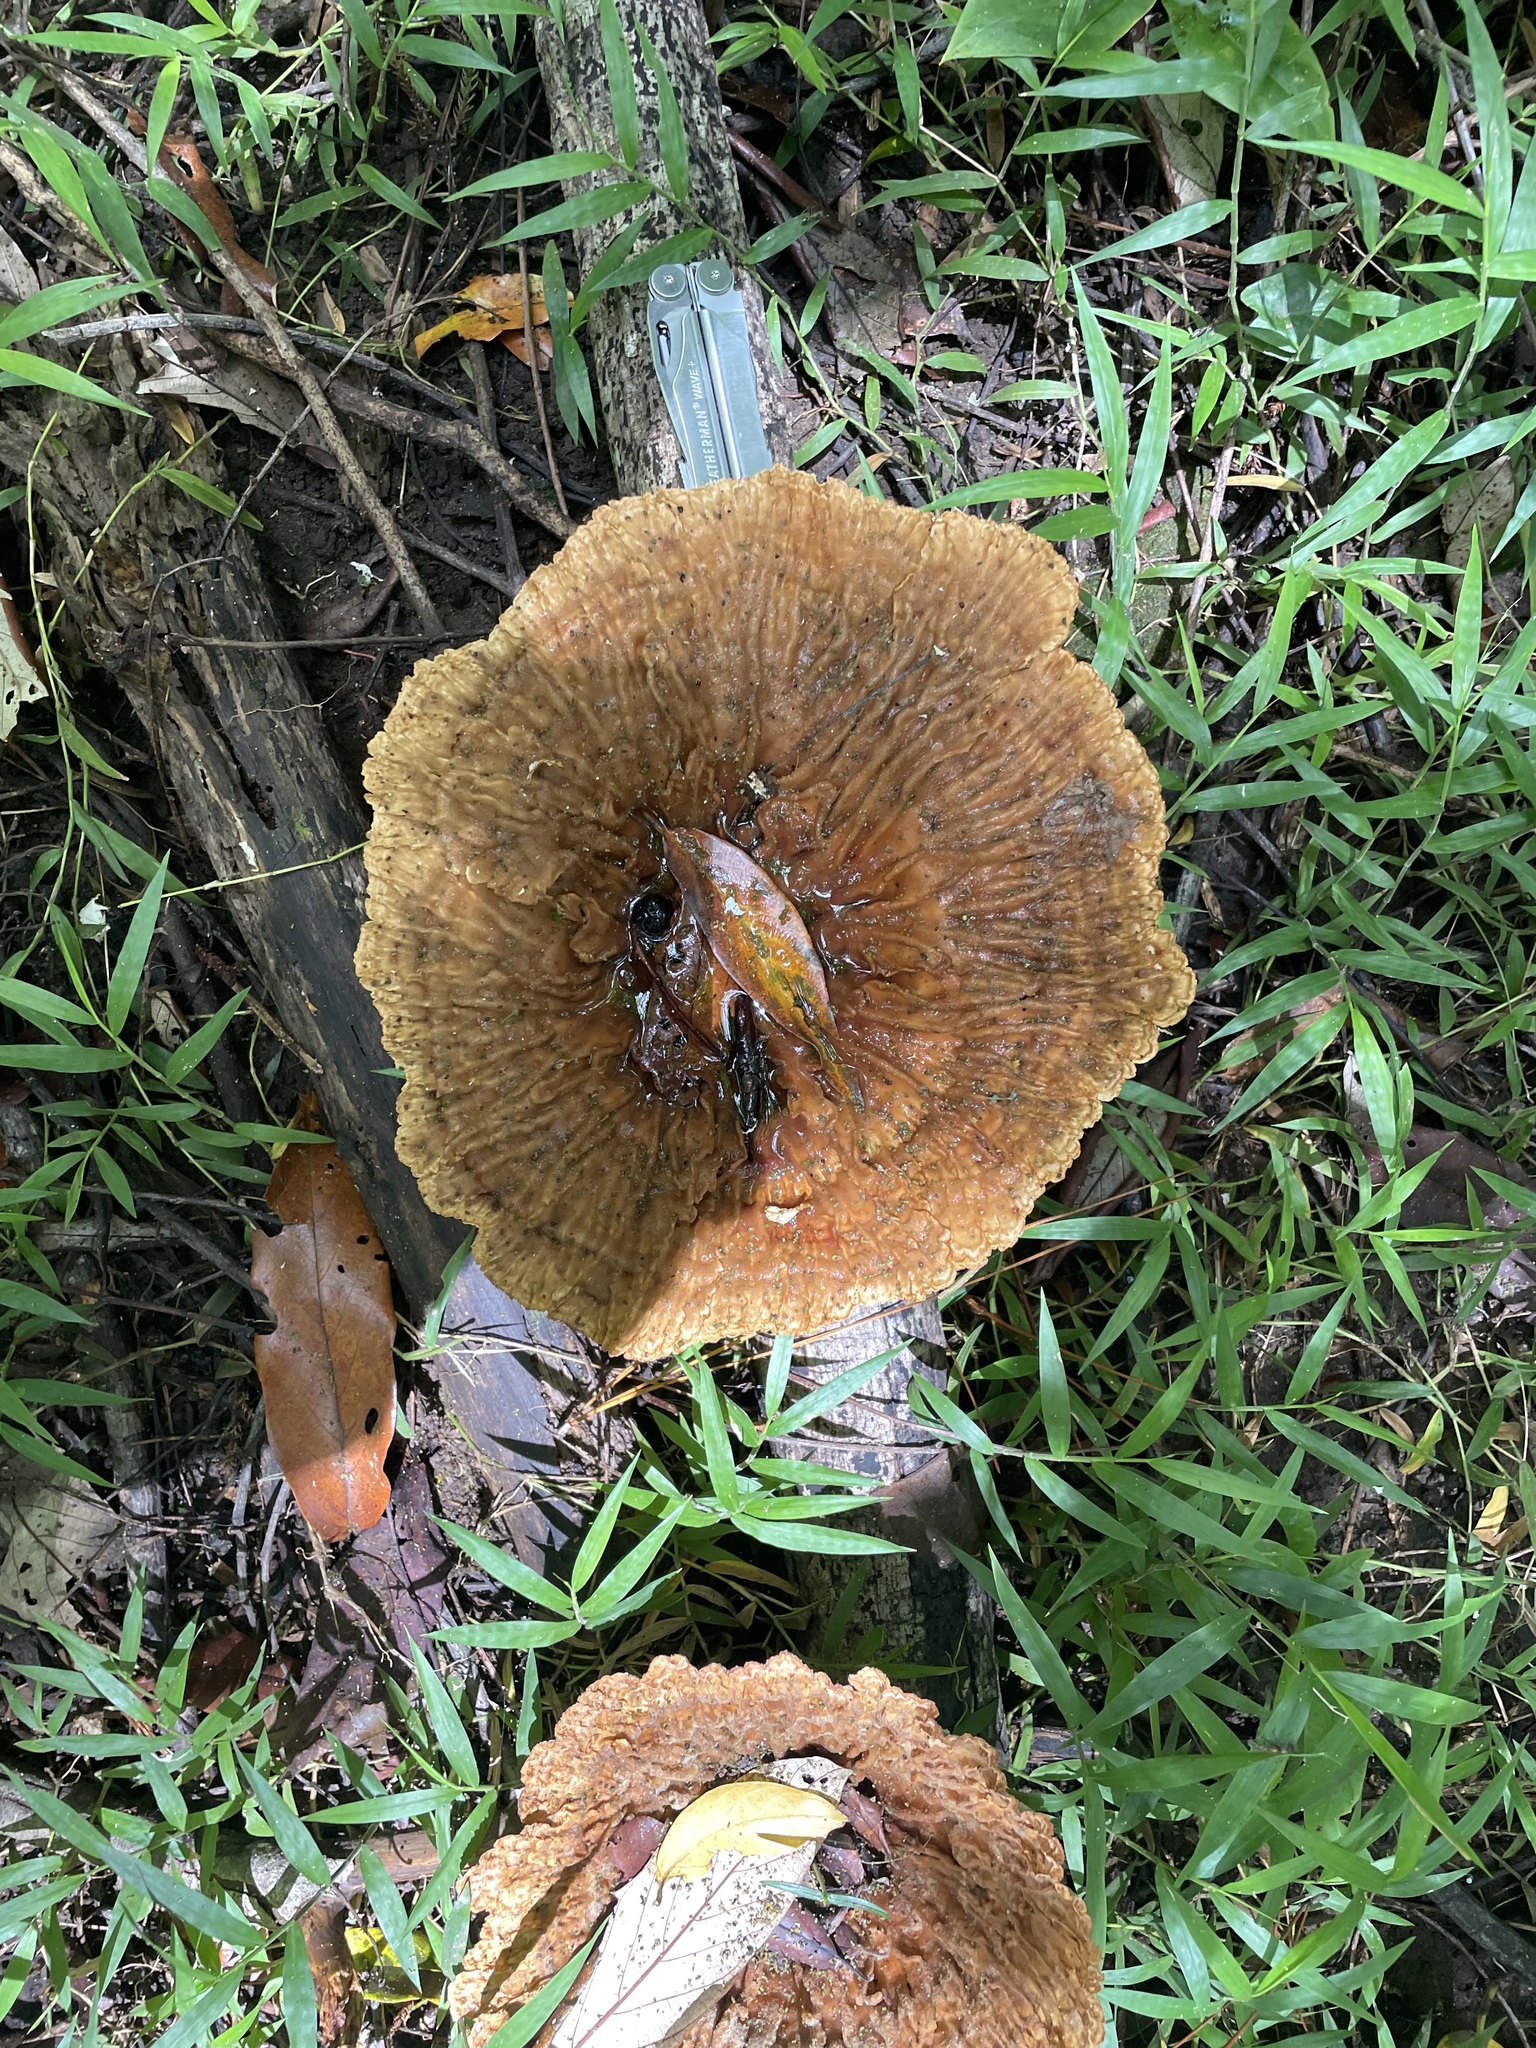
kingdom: Fungi
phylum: Basidiomycota
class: Agaricomycetes
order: Polyporales
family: Panaceae
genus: Cymatoderma
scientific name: Cymatoderma elegans
